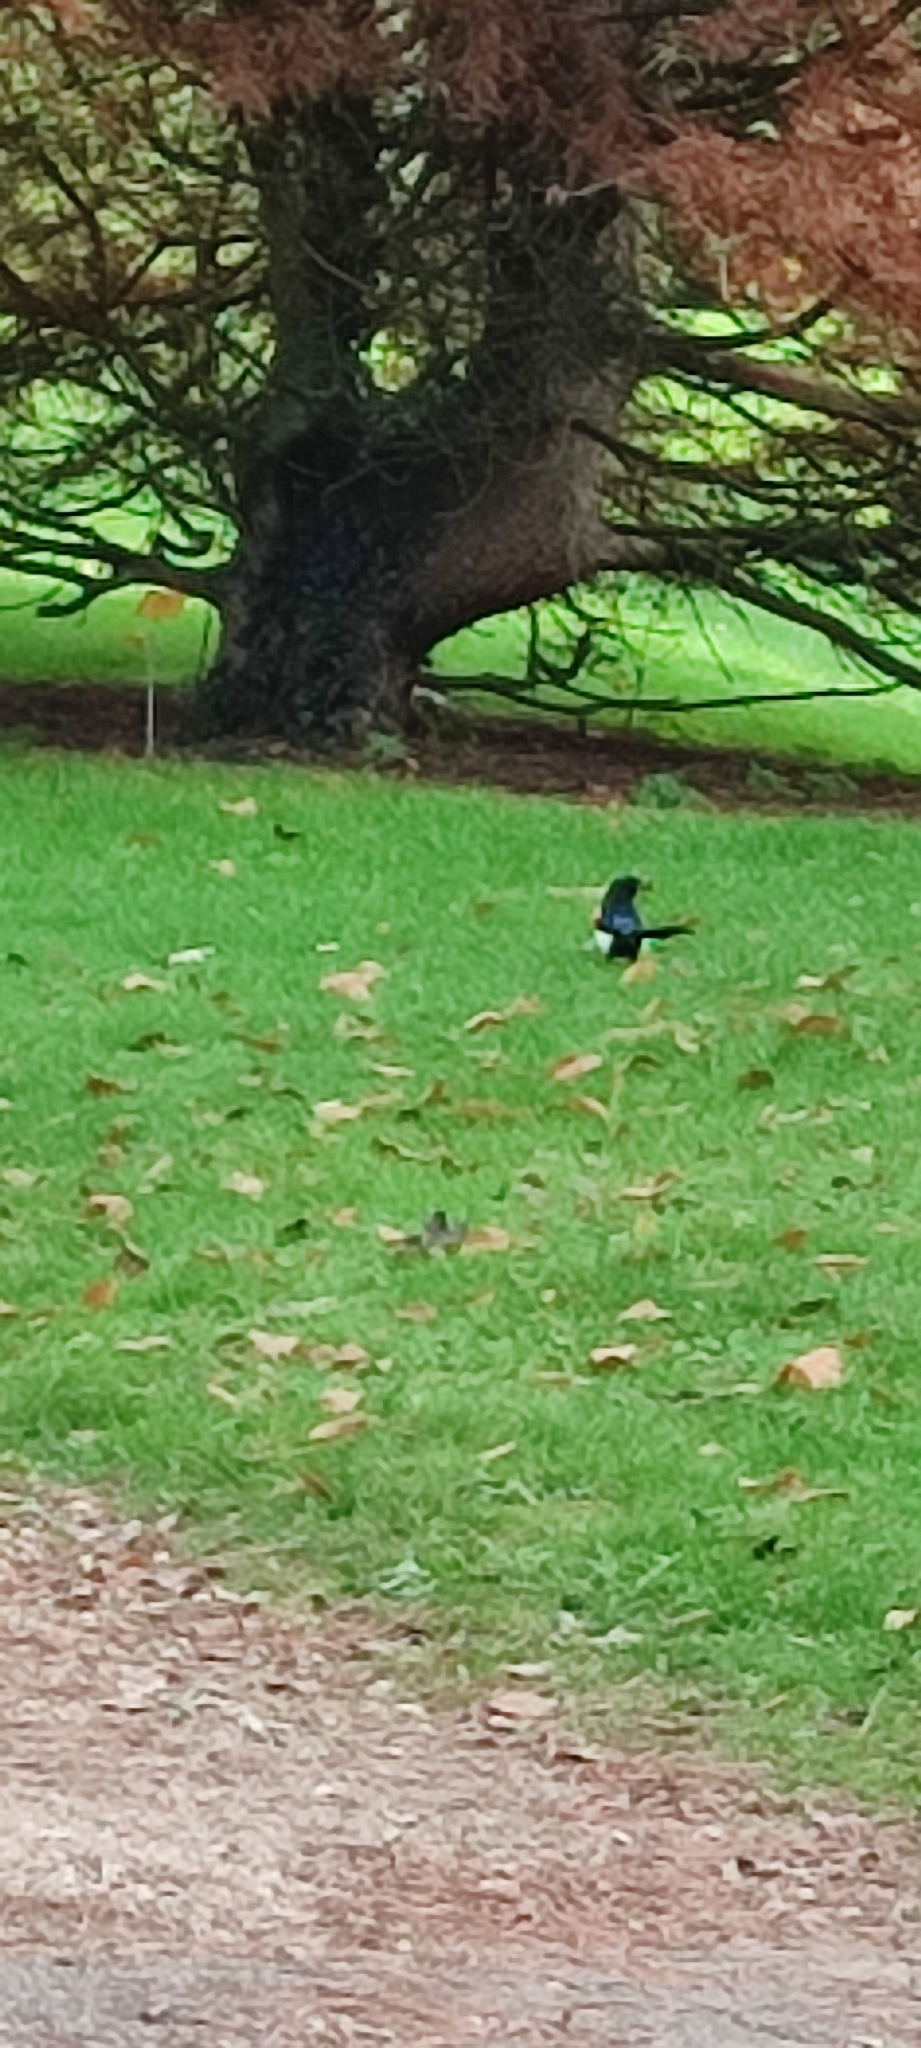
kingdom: Animalia
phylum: Chordata
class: Aves
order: Passeriformes
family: Corvidae
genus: Pica
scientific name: Pica pica
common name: Eurasian magpie
